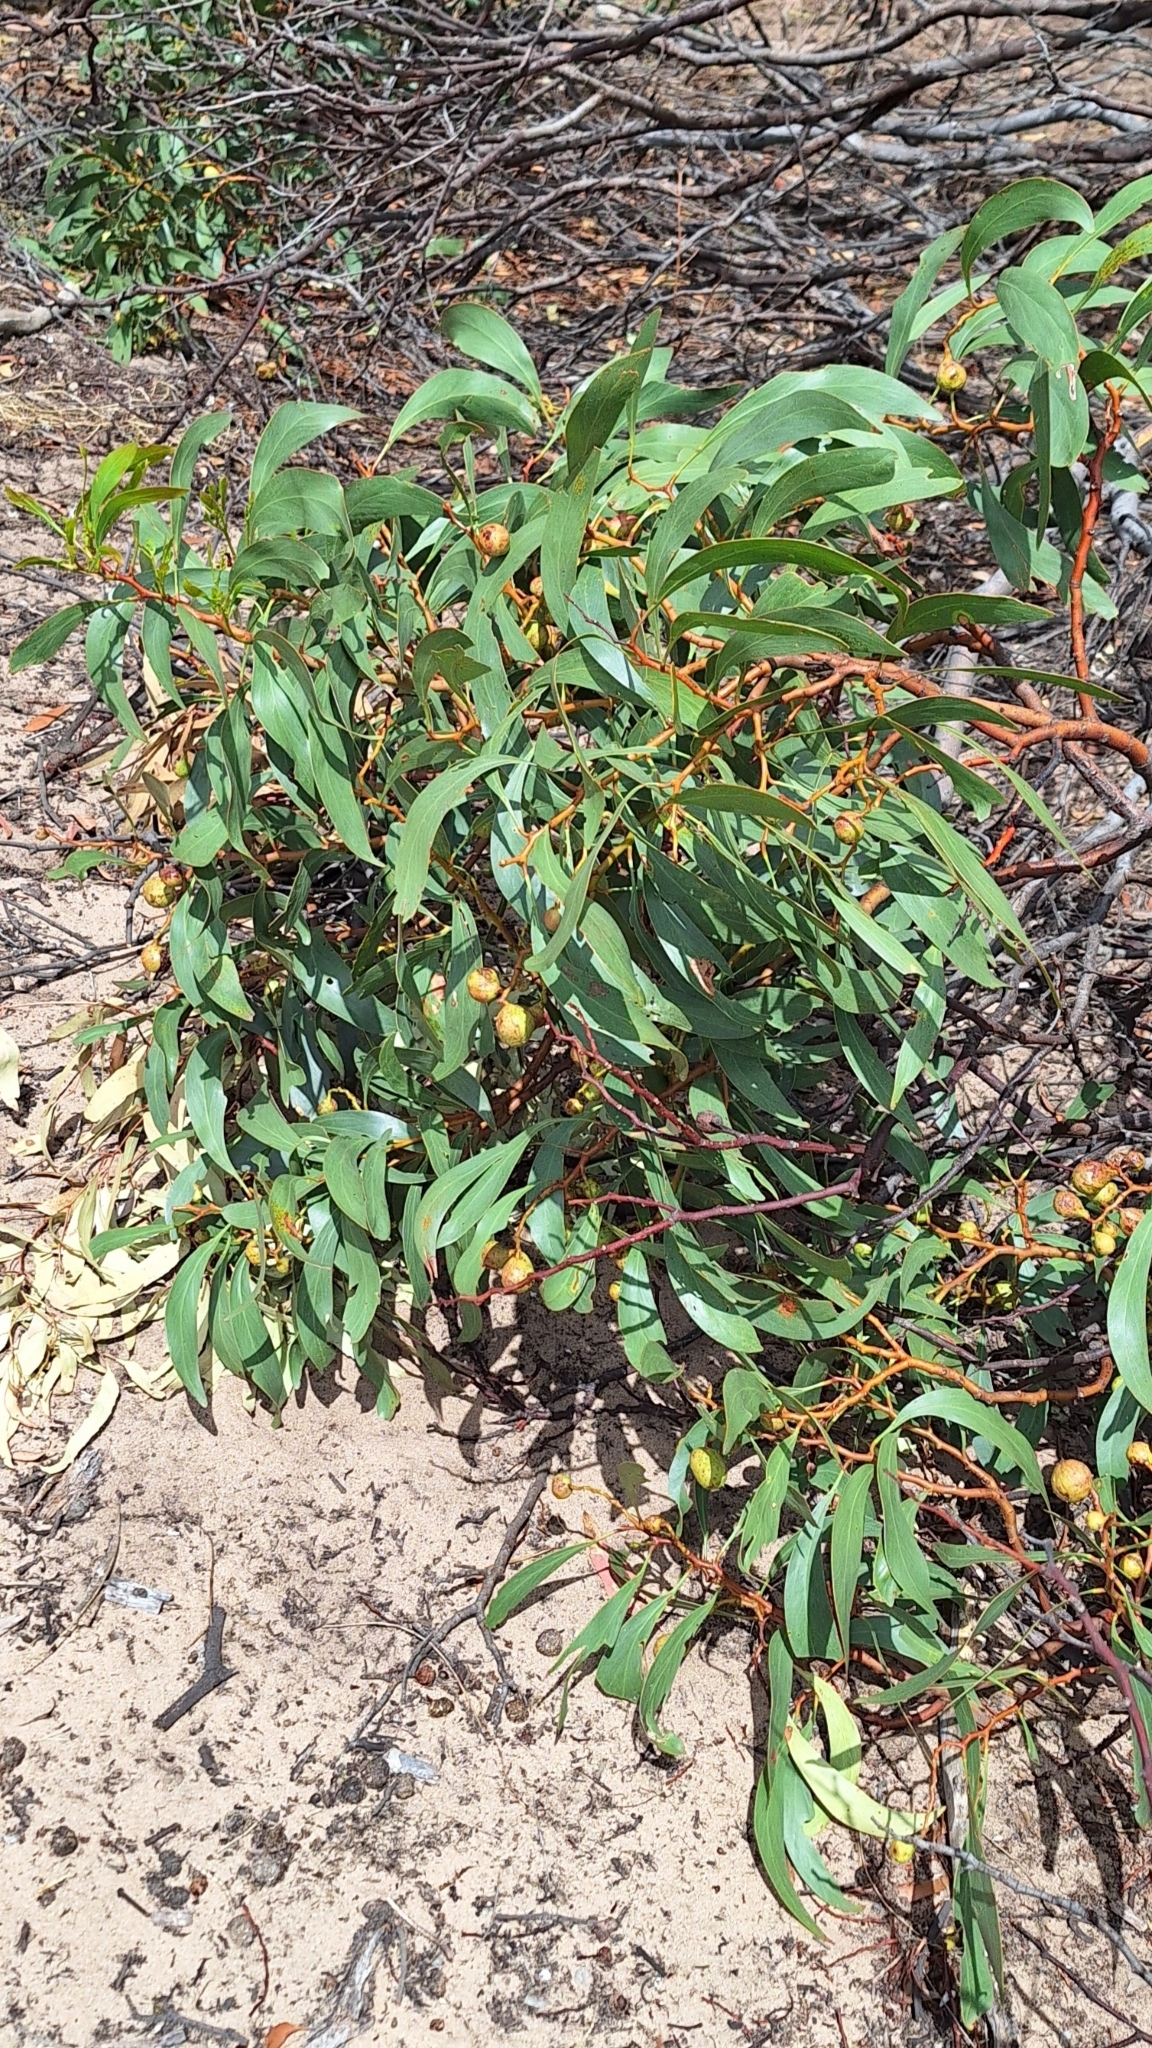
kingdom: Plantae
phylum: Tracheophyta
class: Magnoliopsida
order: Fabales
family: Fabaceae
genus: Acacia
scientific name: Acacia pycnantha
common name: Golden wattle
